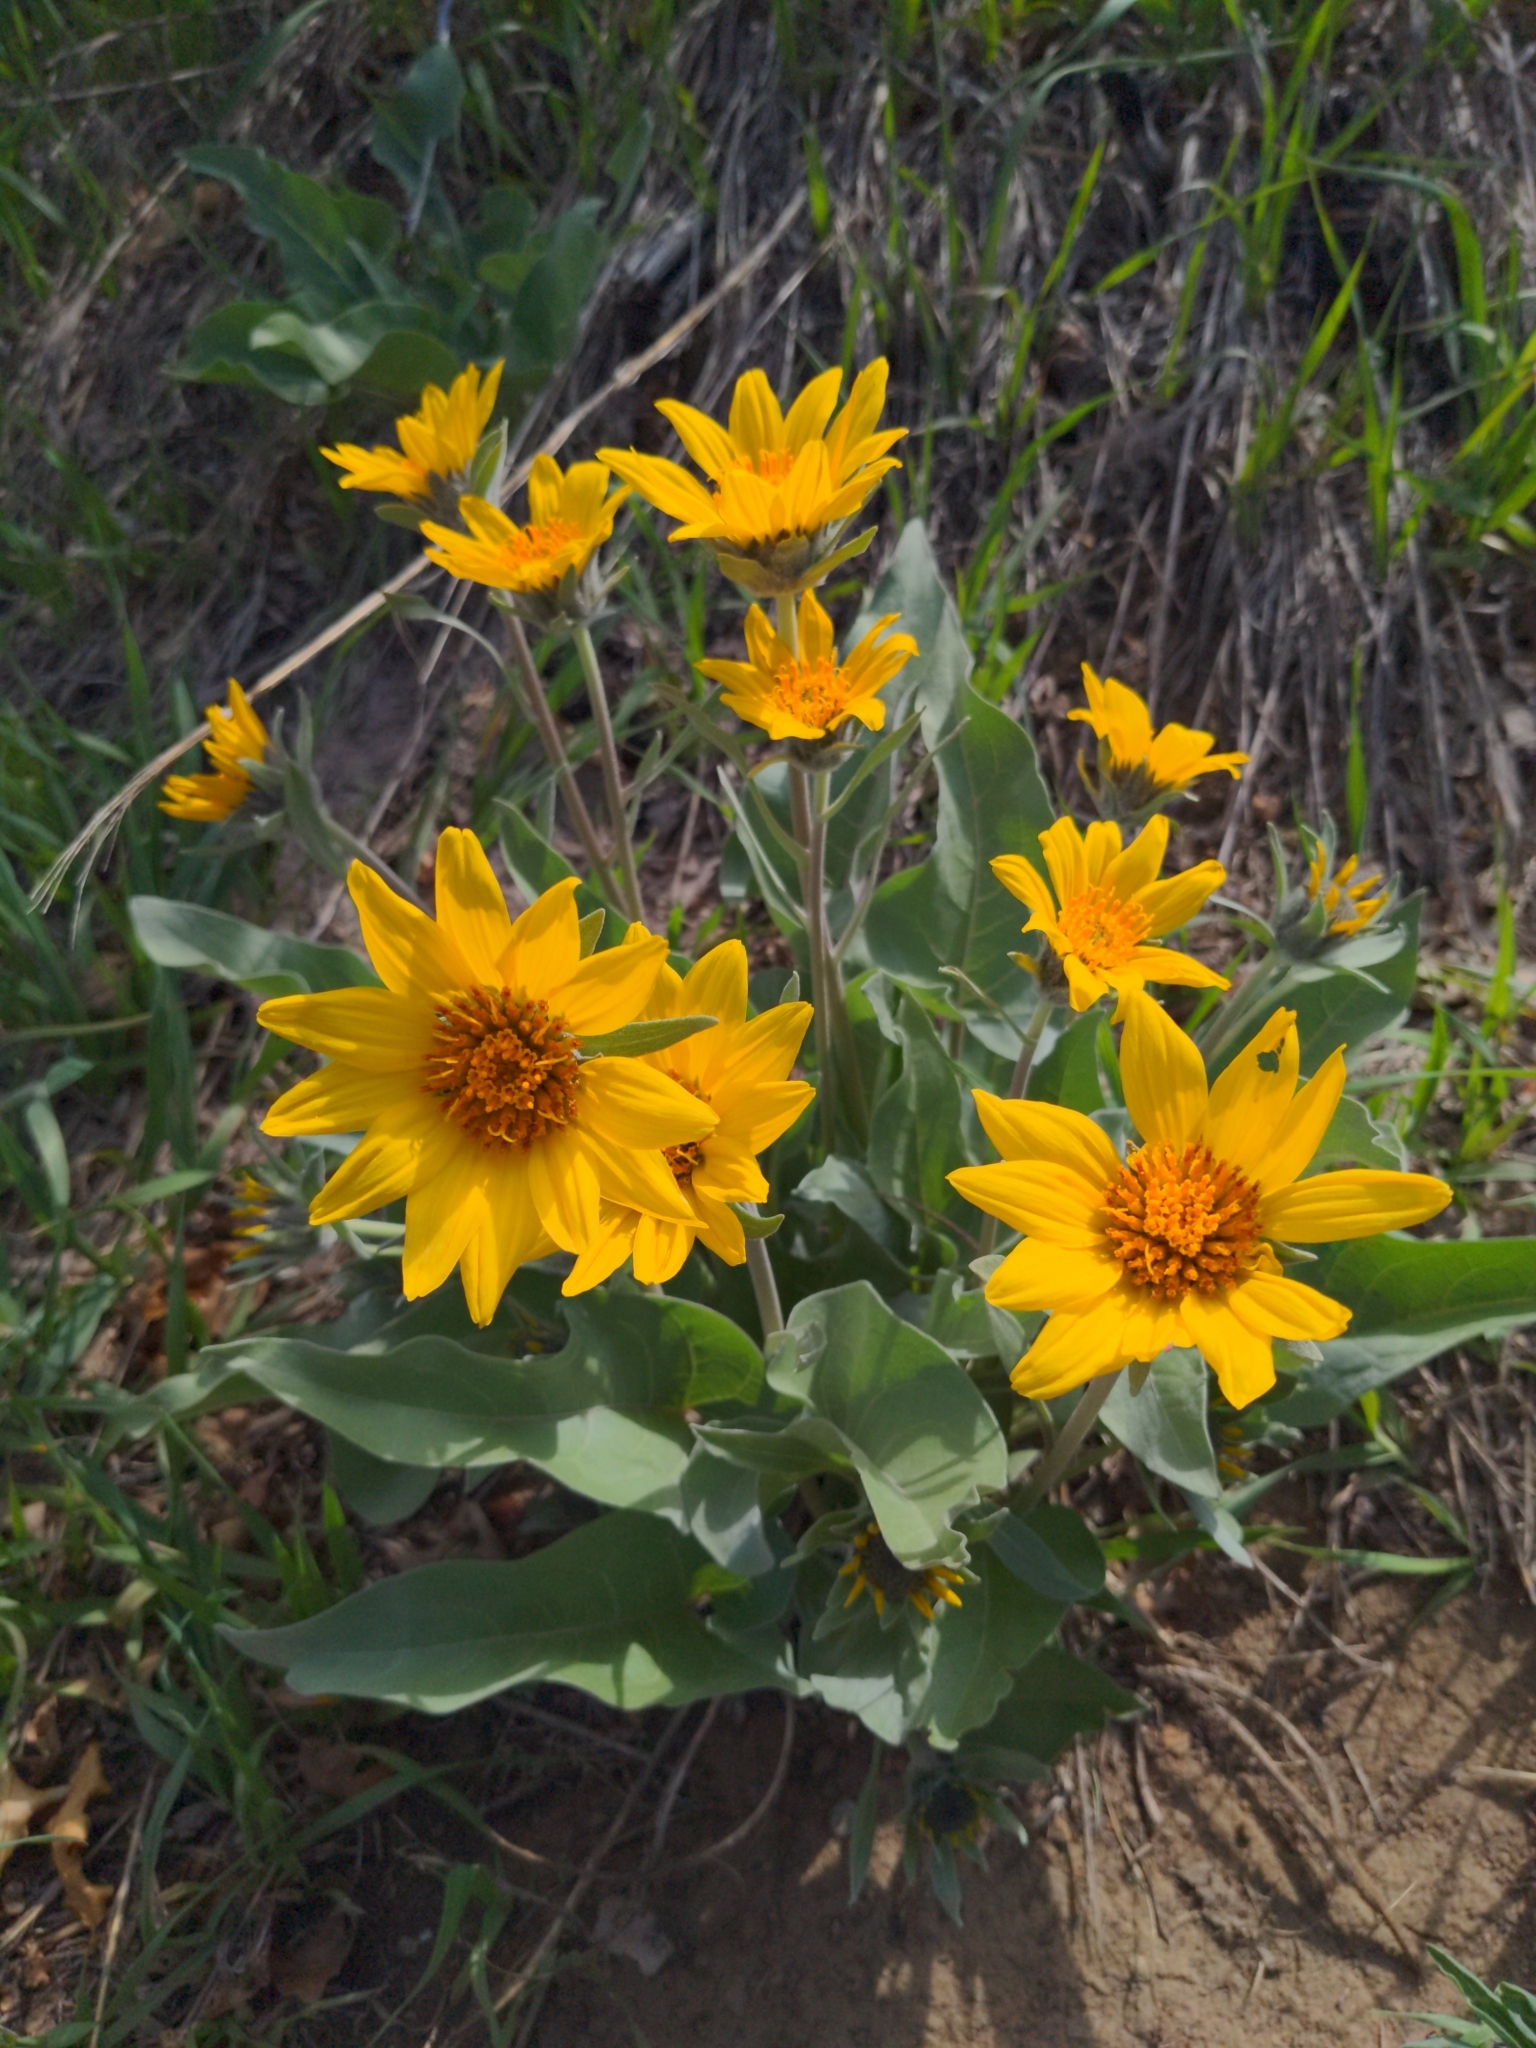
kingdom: Plantae
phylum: Tracheophyta
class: Magnoliopsida
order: Asterales
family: Asteraceae
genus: Wyethia
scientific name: Wyethia sagittata
